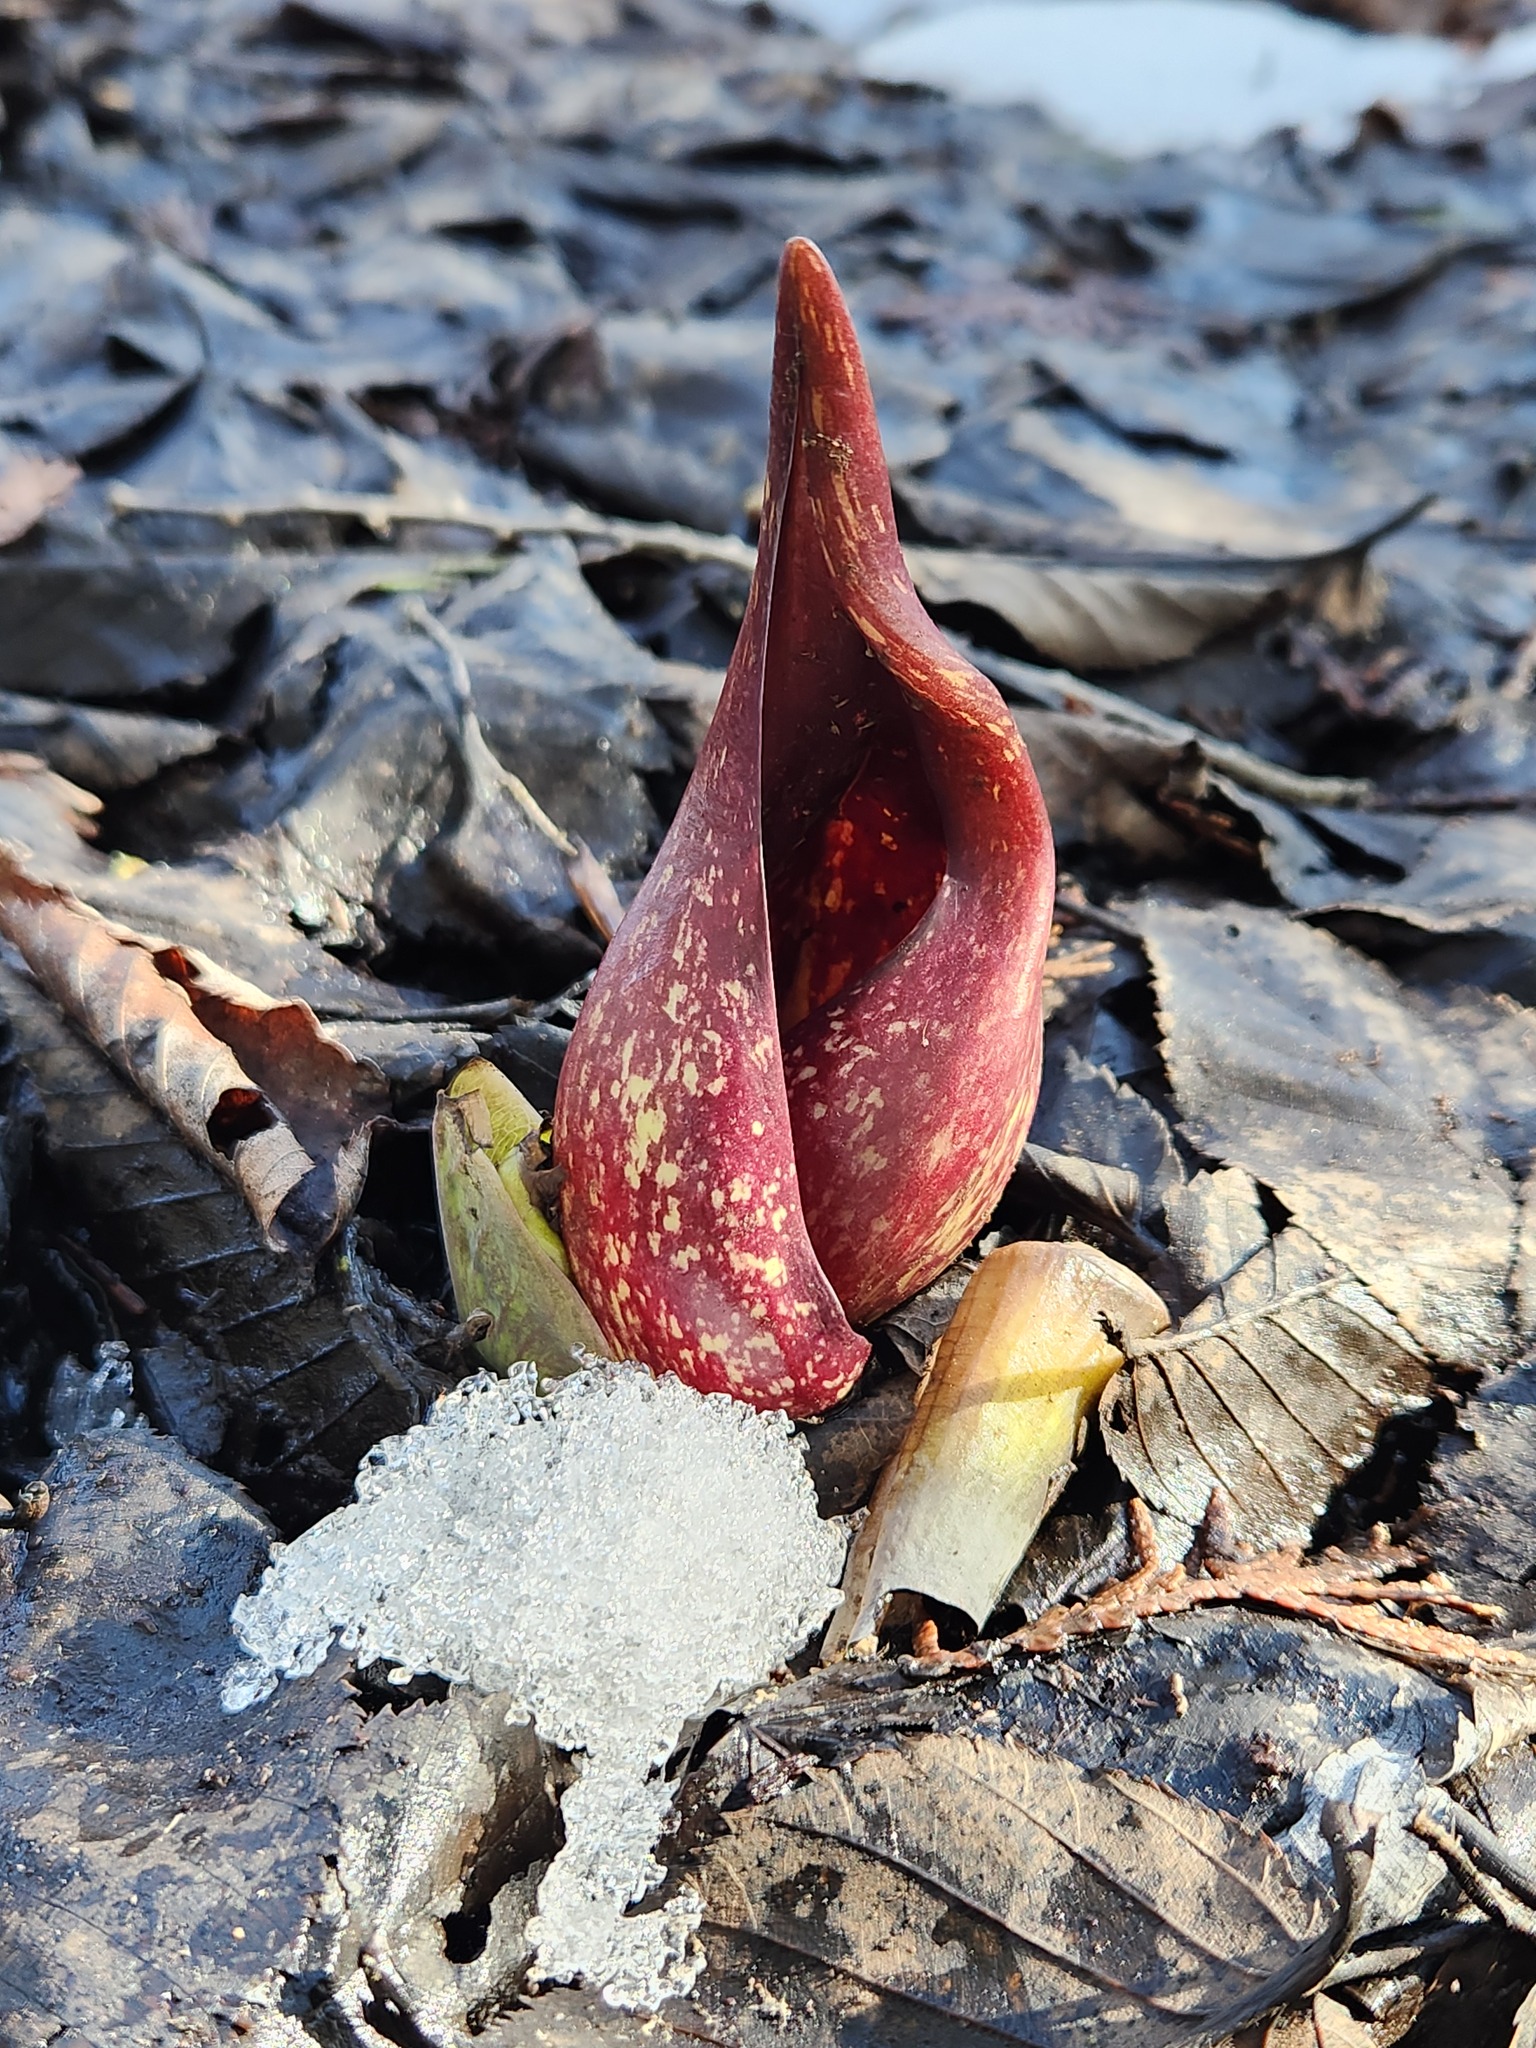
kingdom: Plantae
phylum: Tracheophyta
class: Liliopsida
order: Alismatales
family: Araceae
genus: Symplocarpus
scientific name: Symplocarpus foetidus
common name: Eastern skunk cabbage
